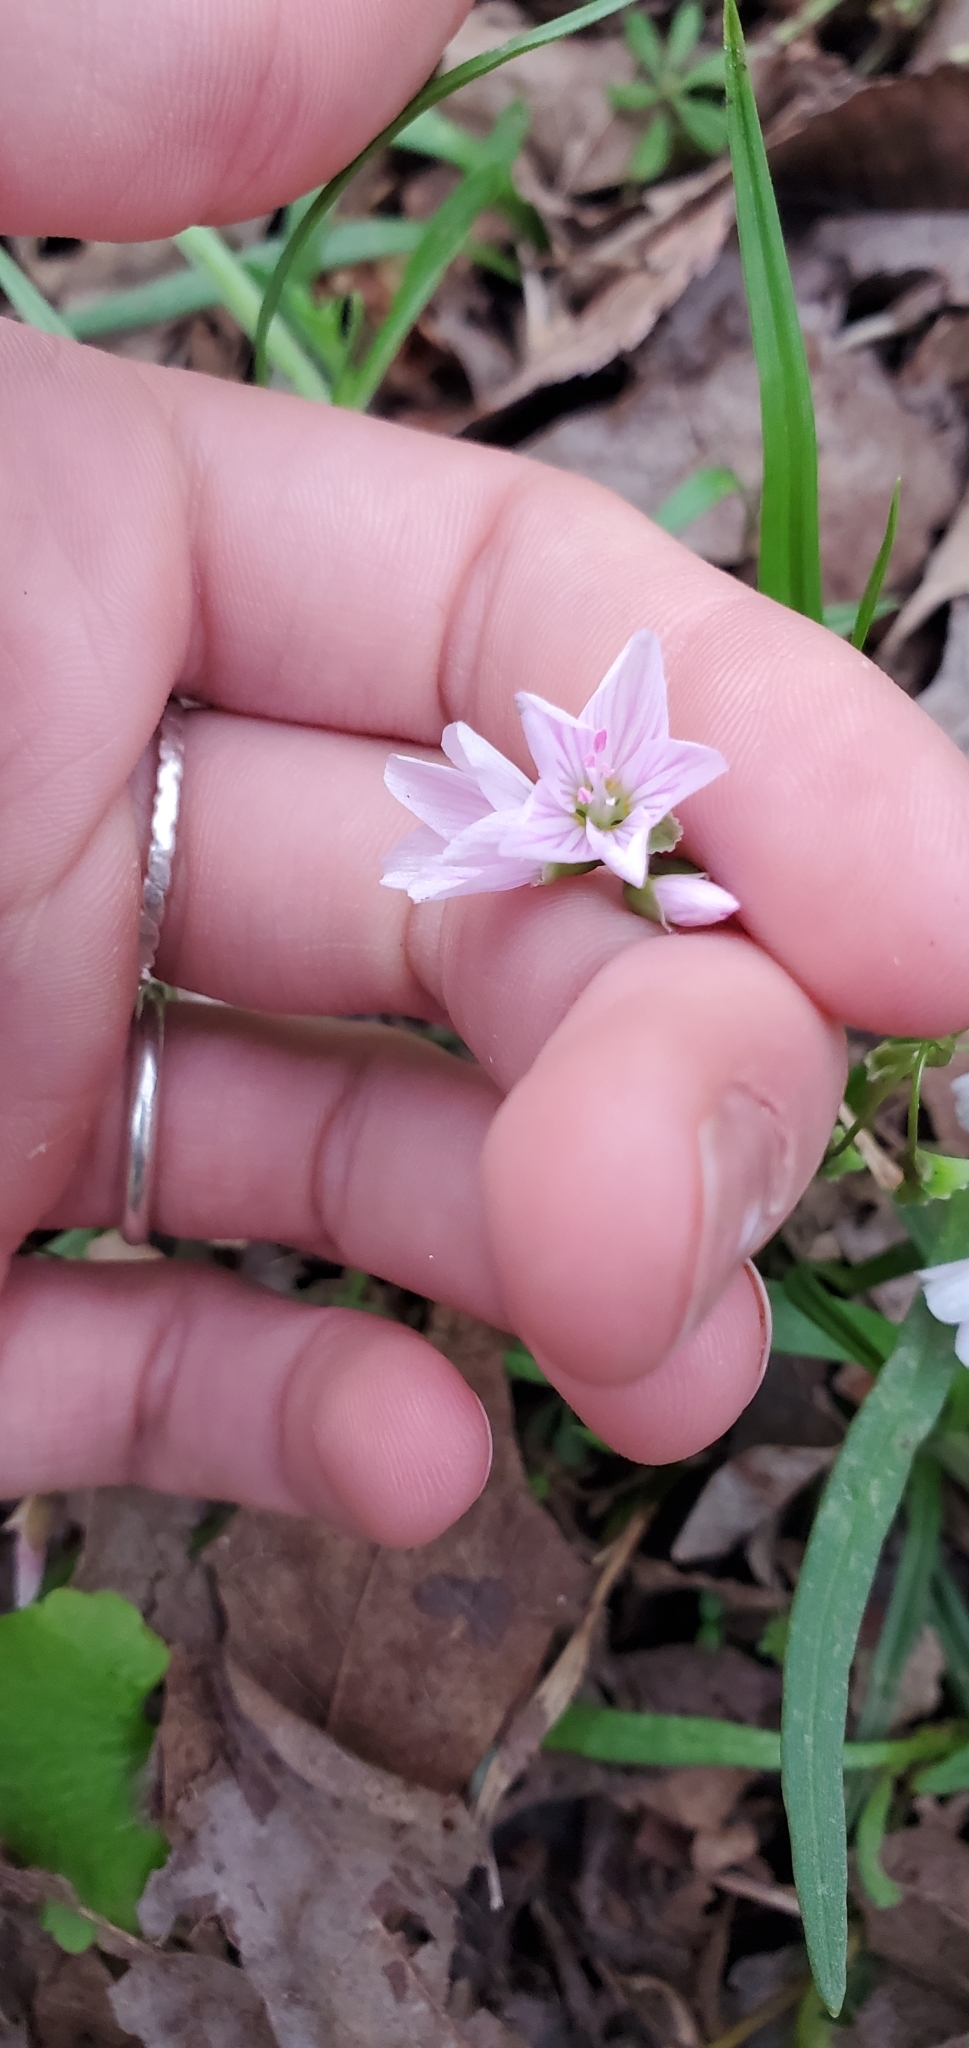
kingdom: Plantae
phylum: Tracheophyta
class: Magnoliopsida
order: Caryophyllales
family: Montiaceae
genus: Claytonia
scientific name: Claytonia virginica
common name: Virginia springbeauty
